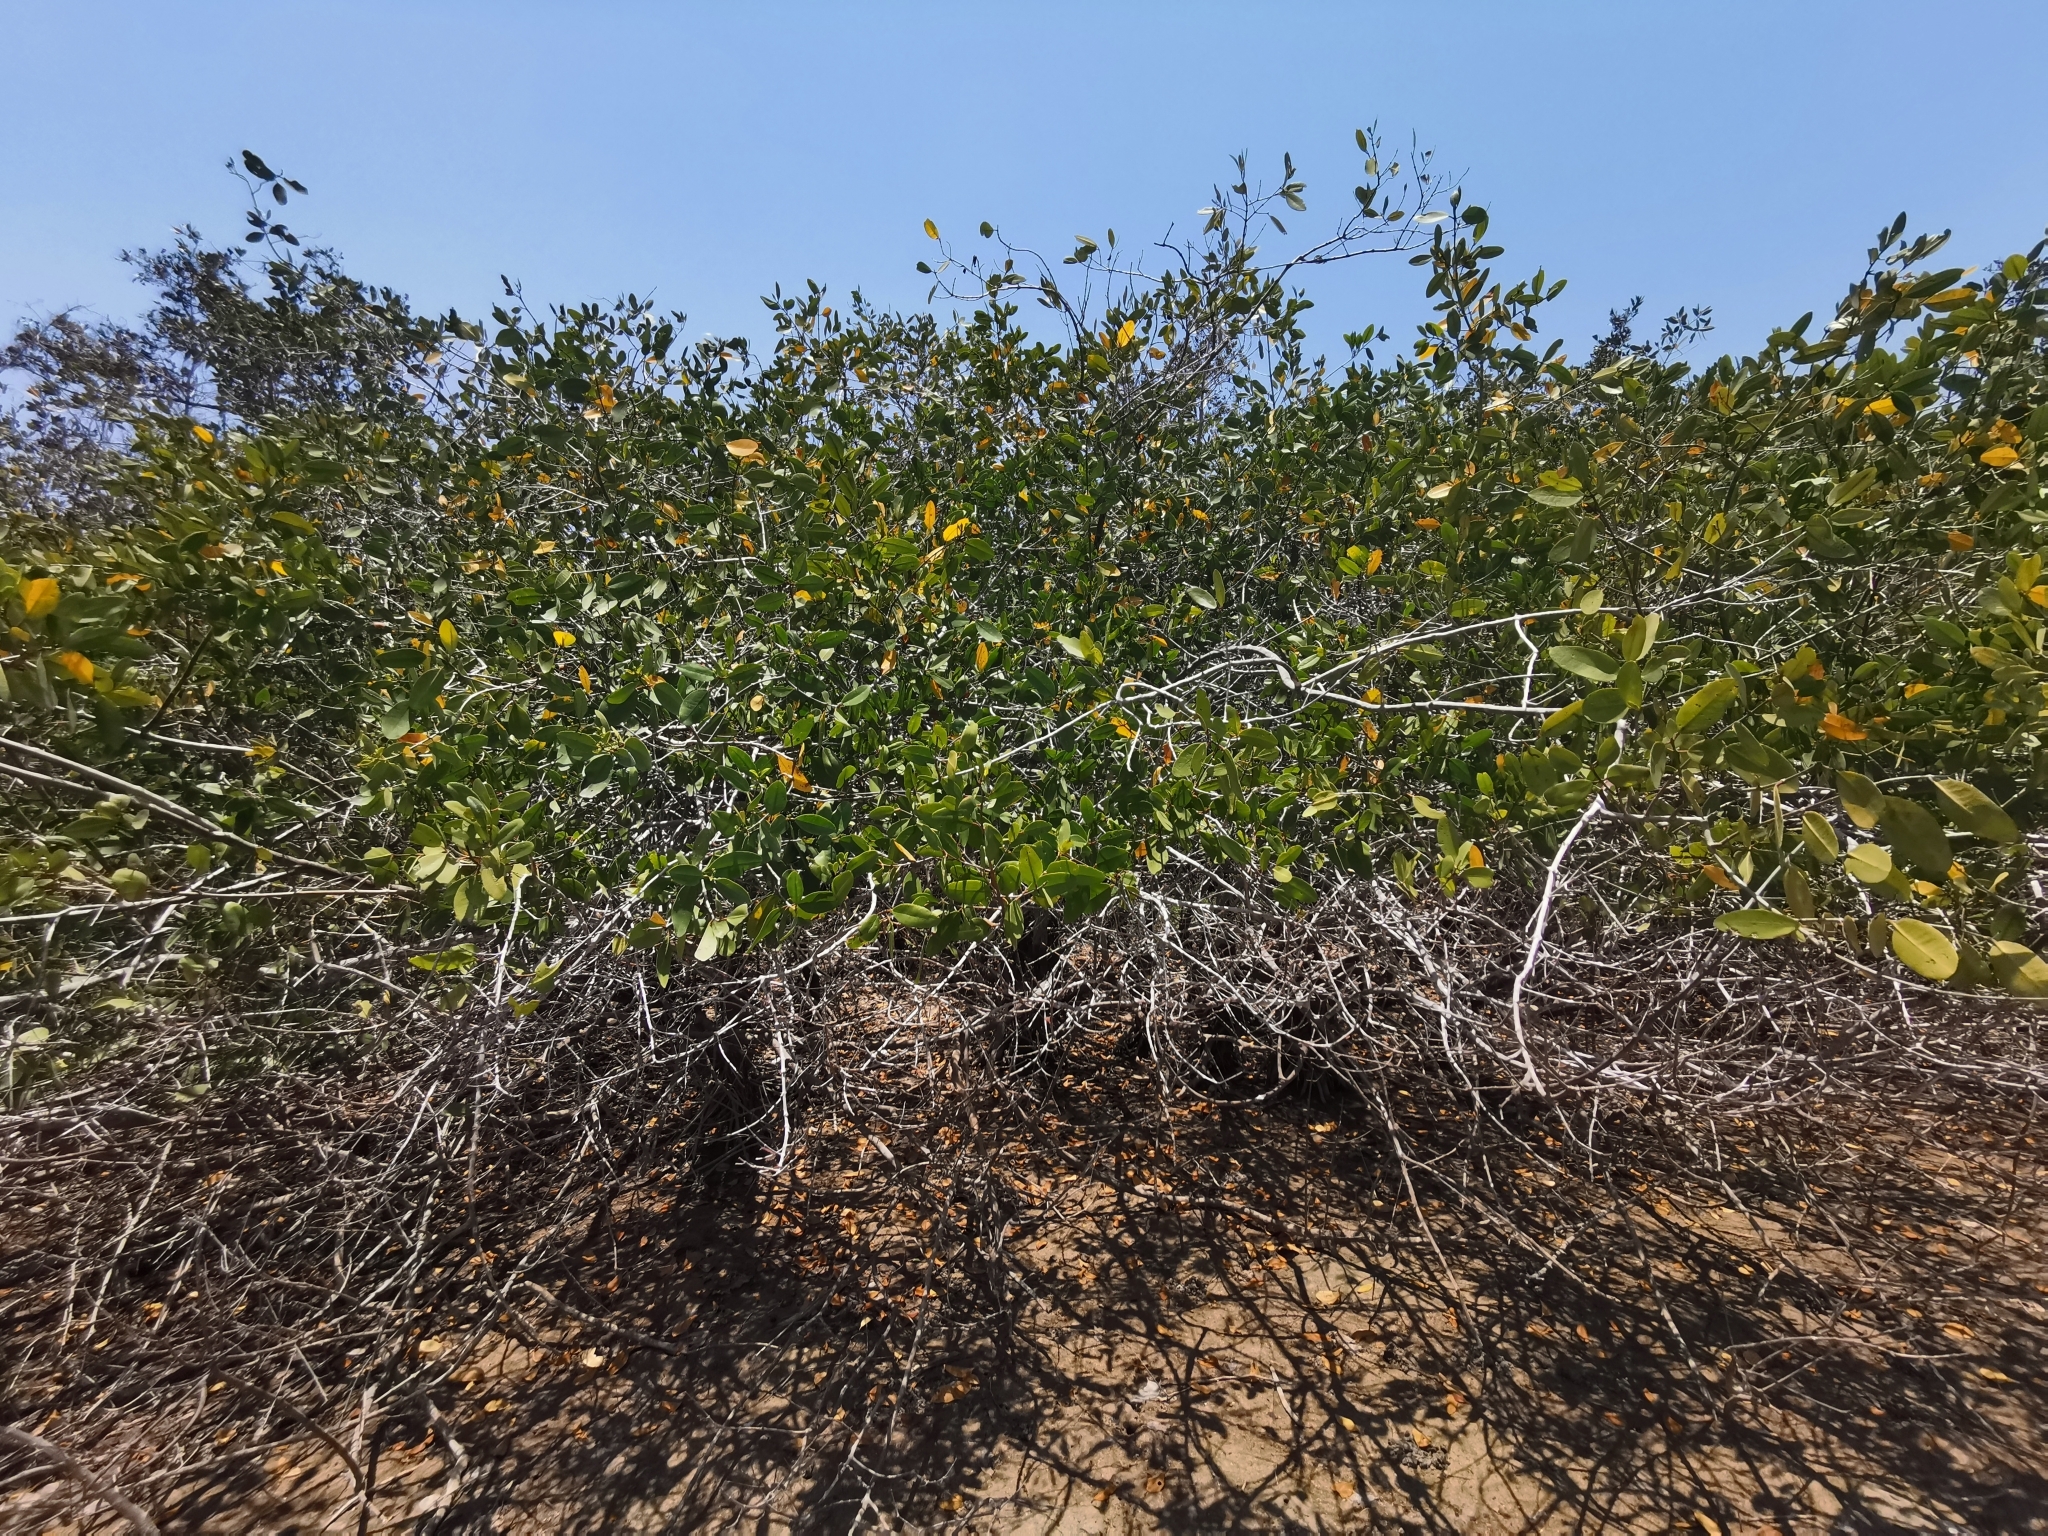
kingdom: Plantae
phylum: Tracheophyta
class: Magnoliopsida
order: Myrtales
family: Combretaceae
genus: Laguncularia
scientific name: Laguncularia racemosa
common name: White mangrove
